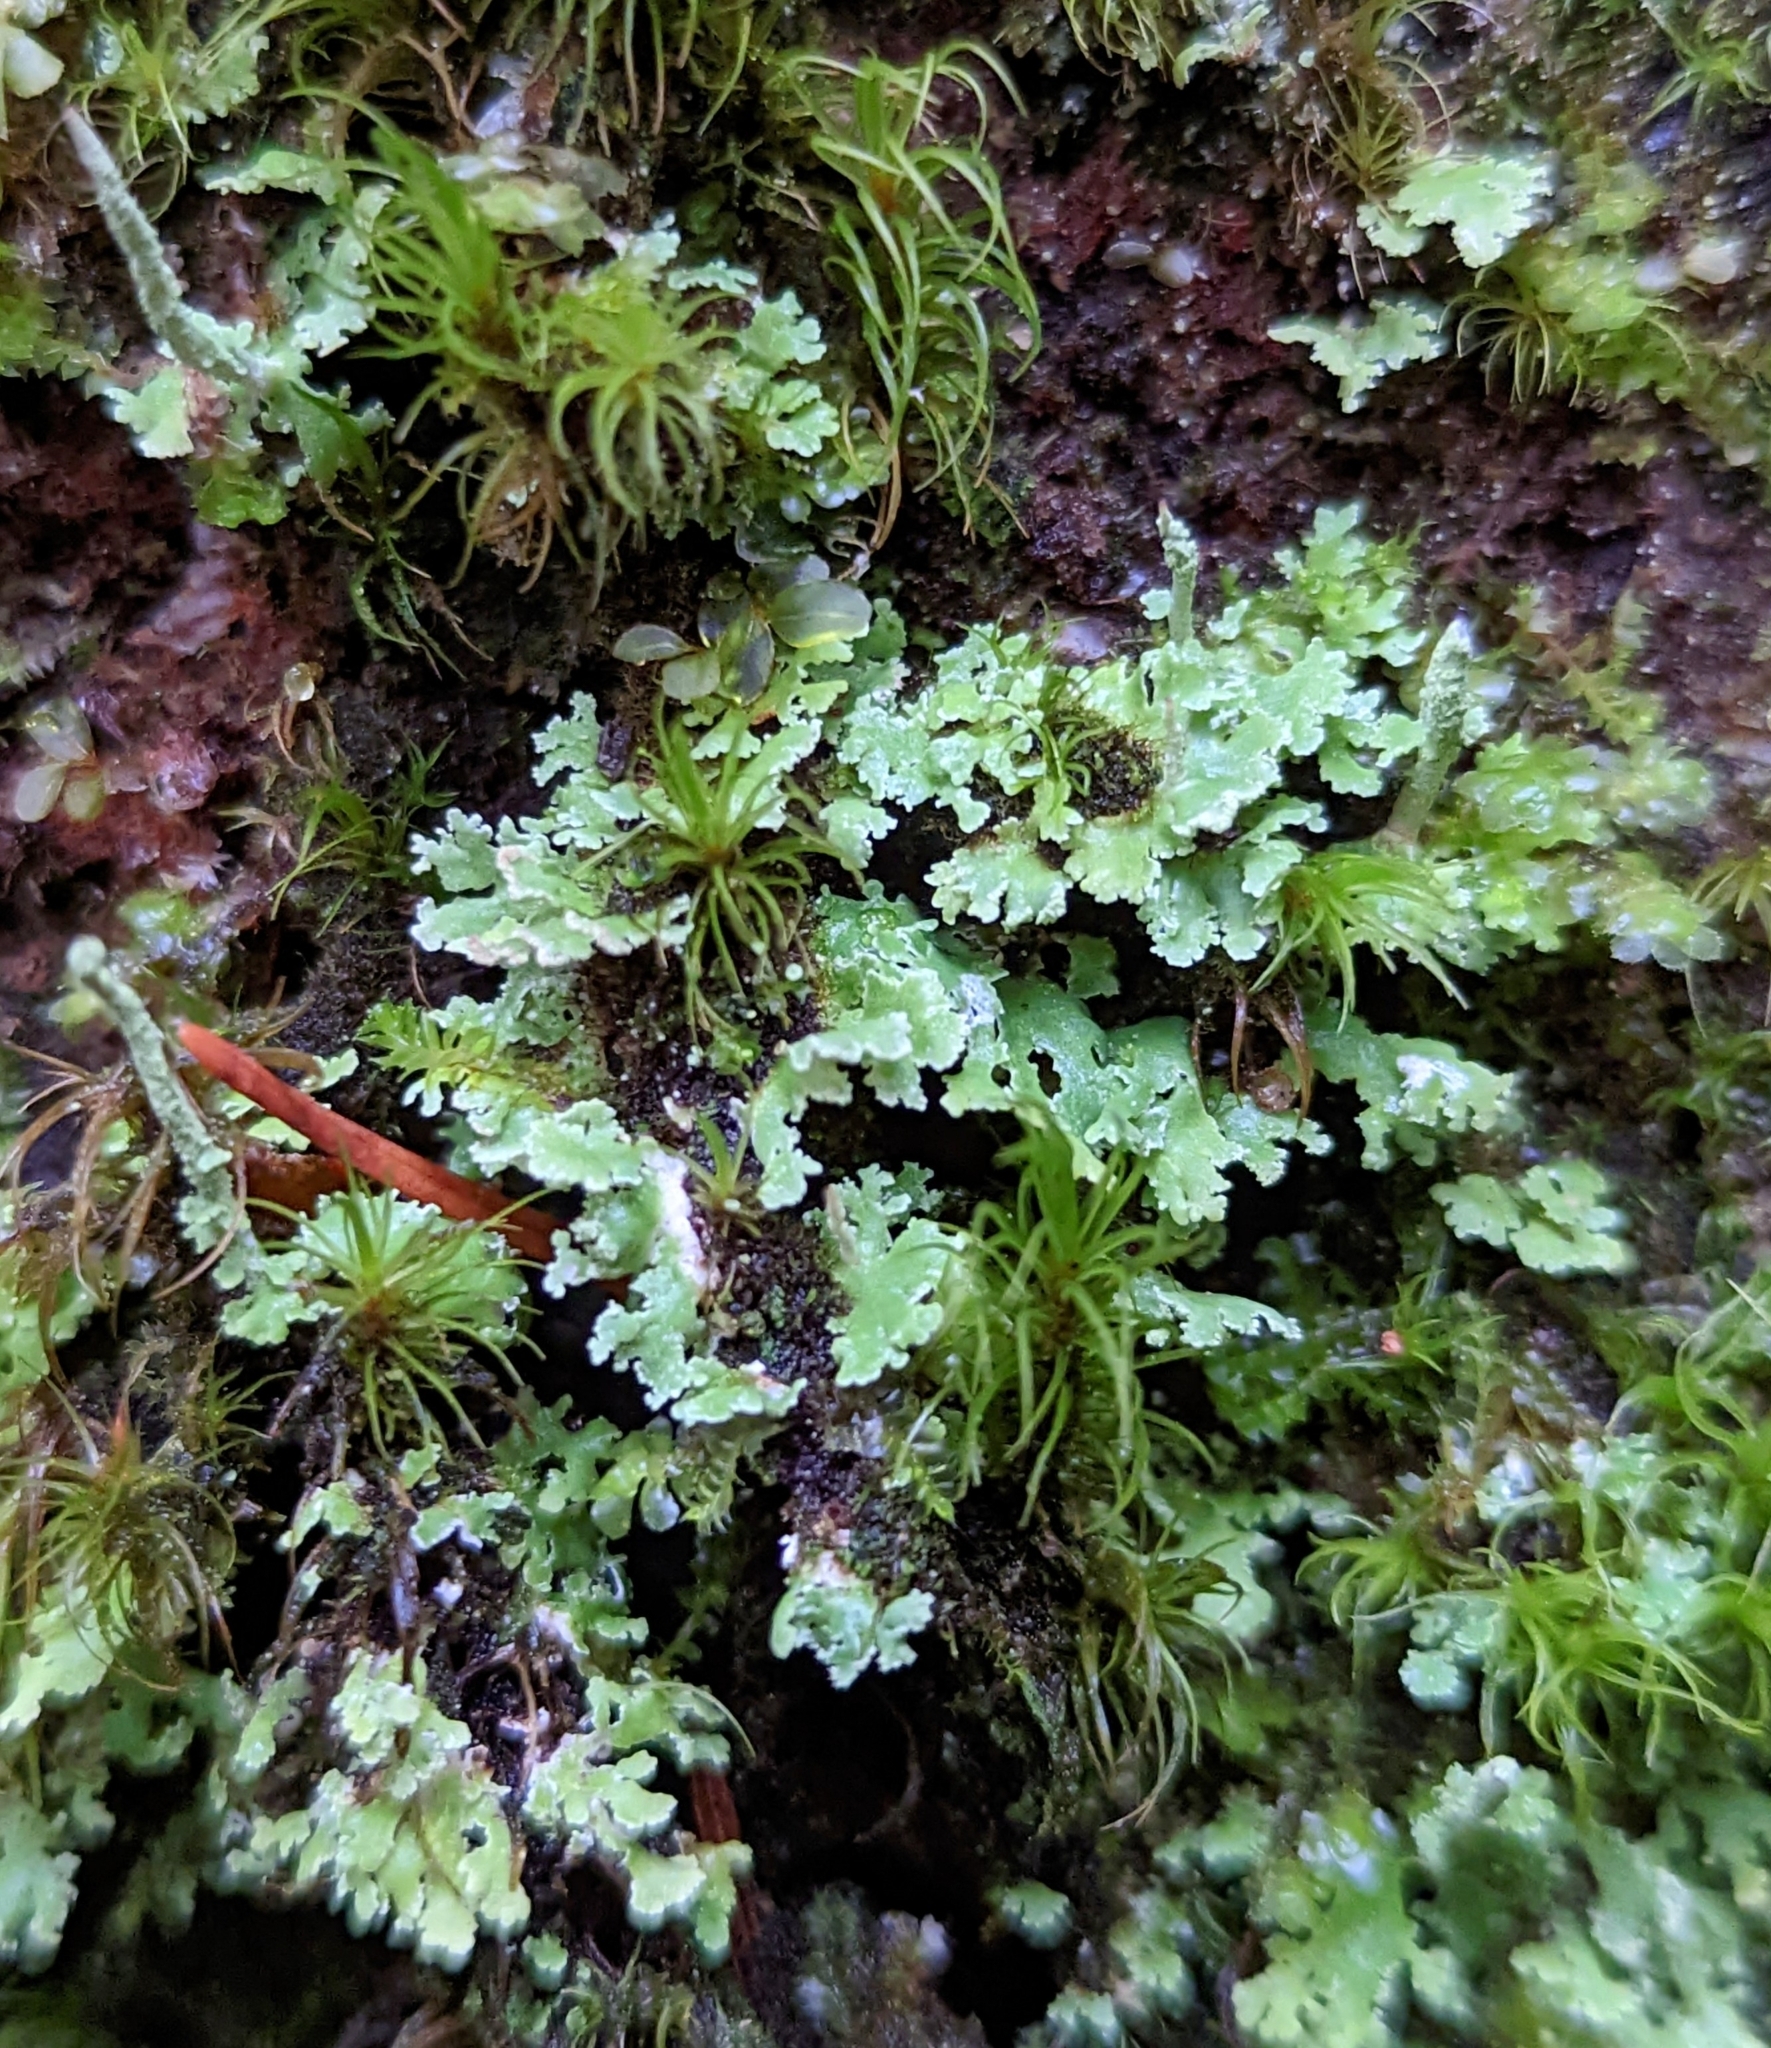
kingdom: Fungi
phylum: Ascomycota
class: Lecanoromycetes
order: Lecanorales
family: Cladoniaceae
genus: Cladonia
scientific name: Cladonia coniocraea
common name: Common powderhorn
